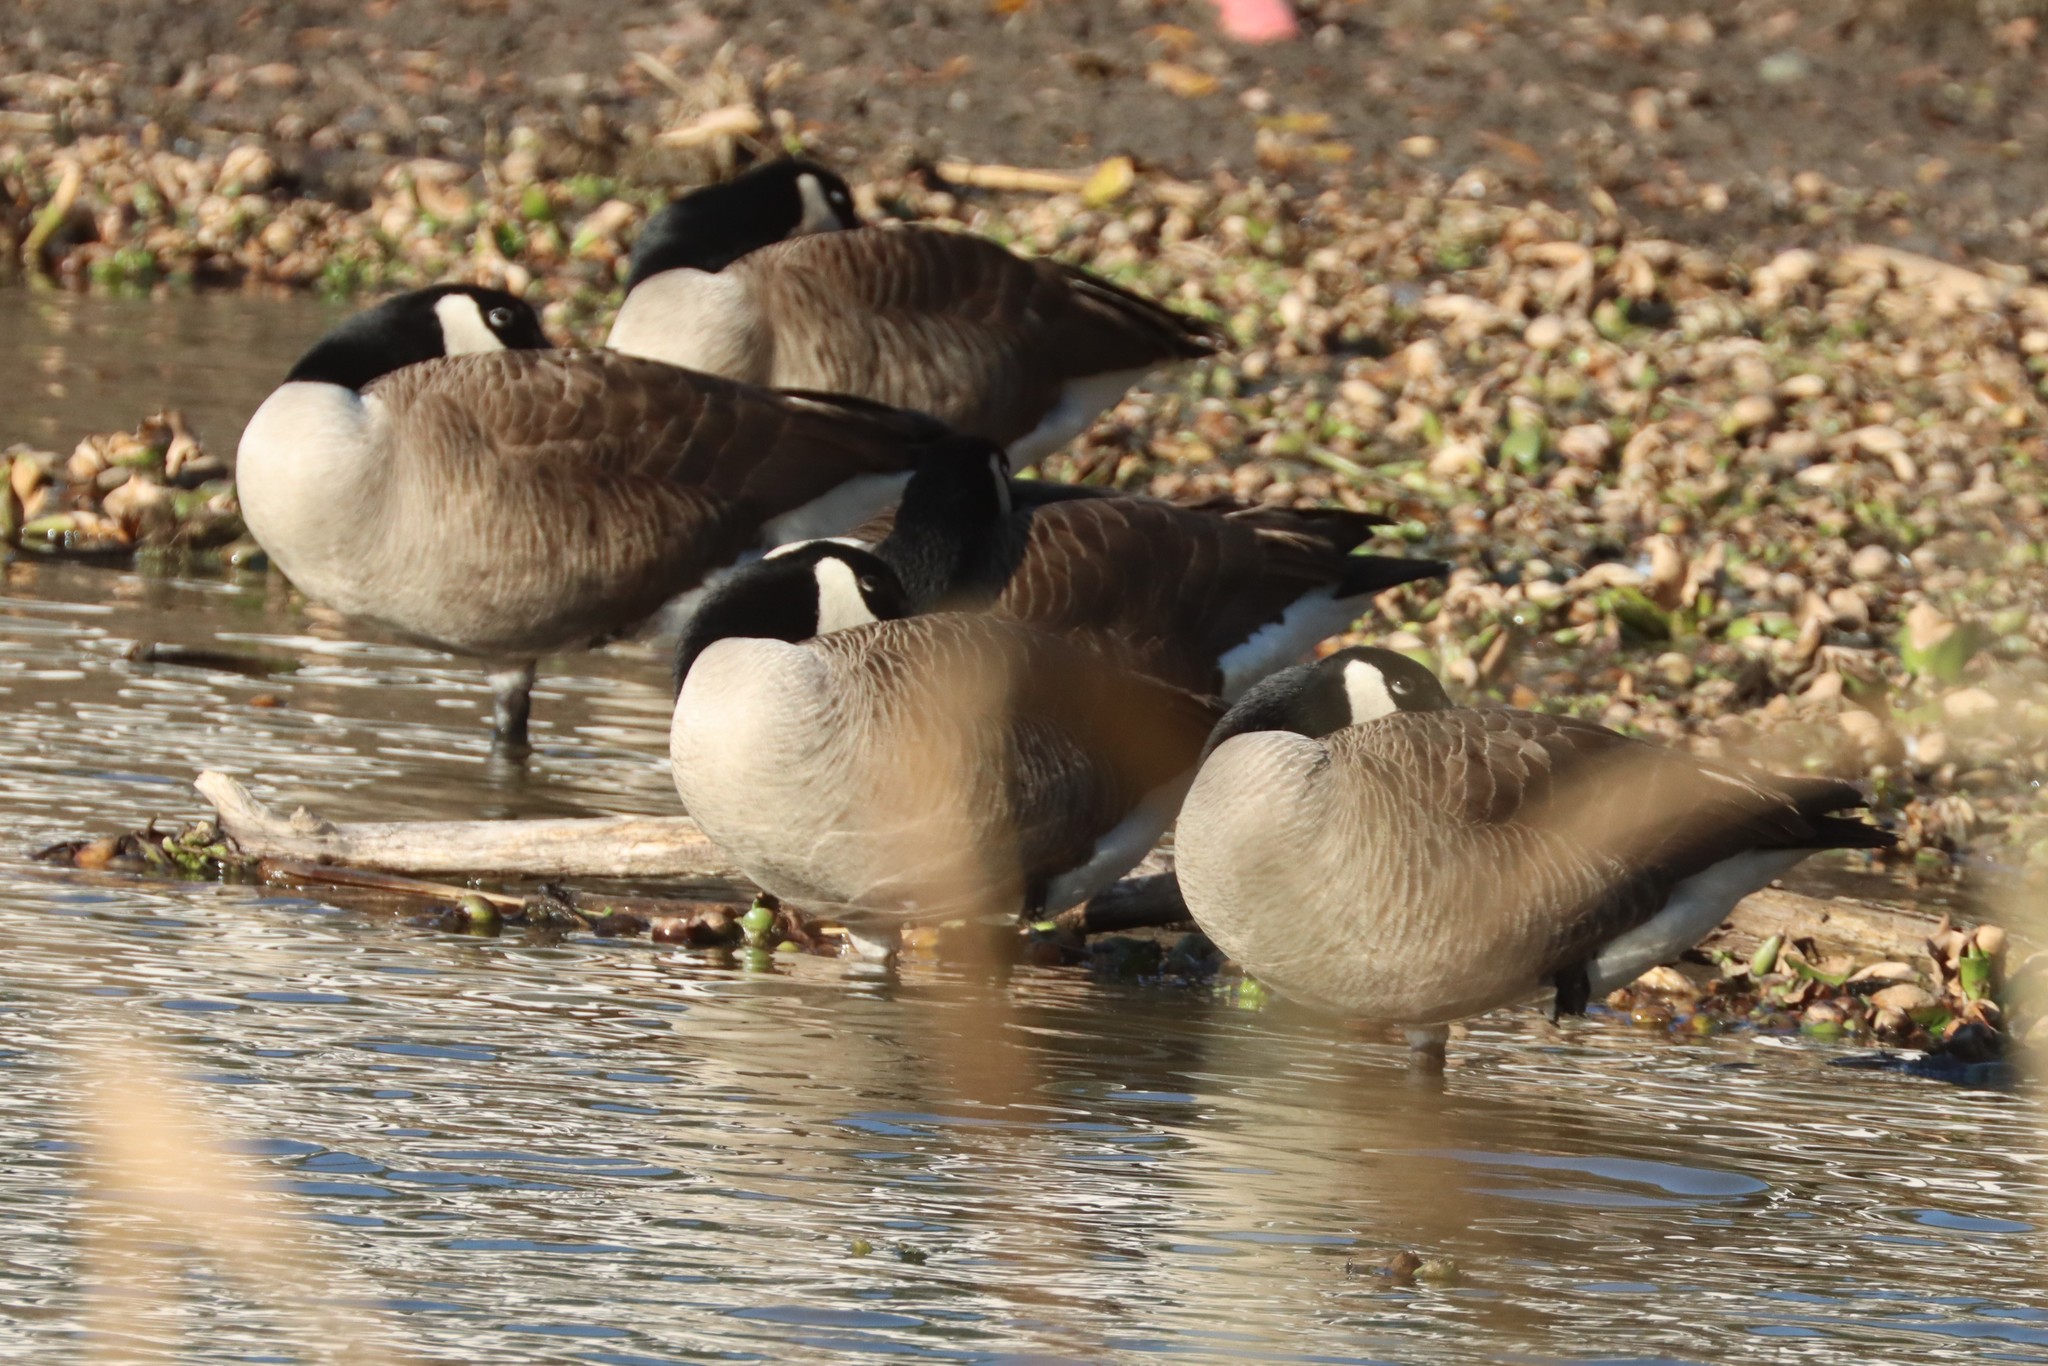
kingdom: Animalia
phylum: Chordata
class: Aves
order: Anseriformes
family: Anatidae
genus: Branta
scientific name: Branta canadensis
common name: Canada goose
